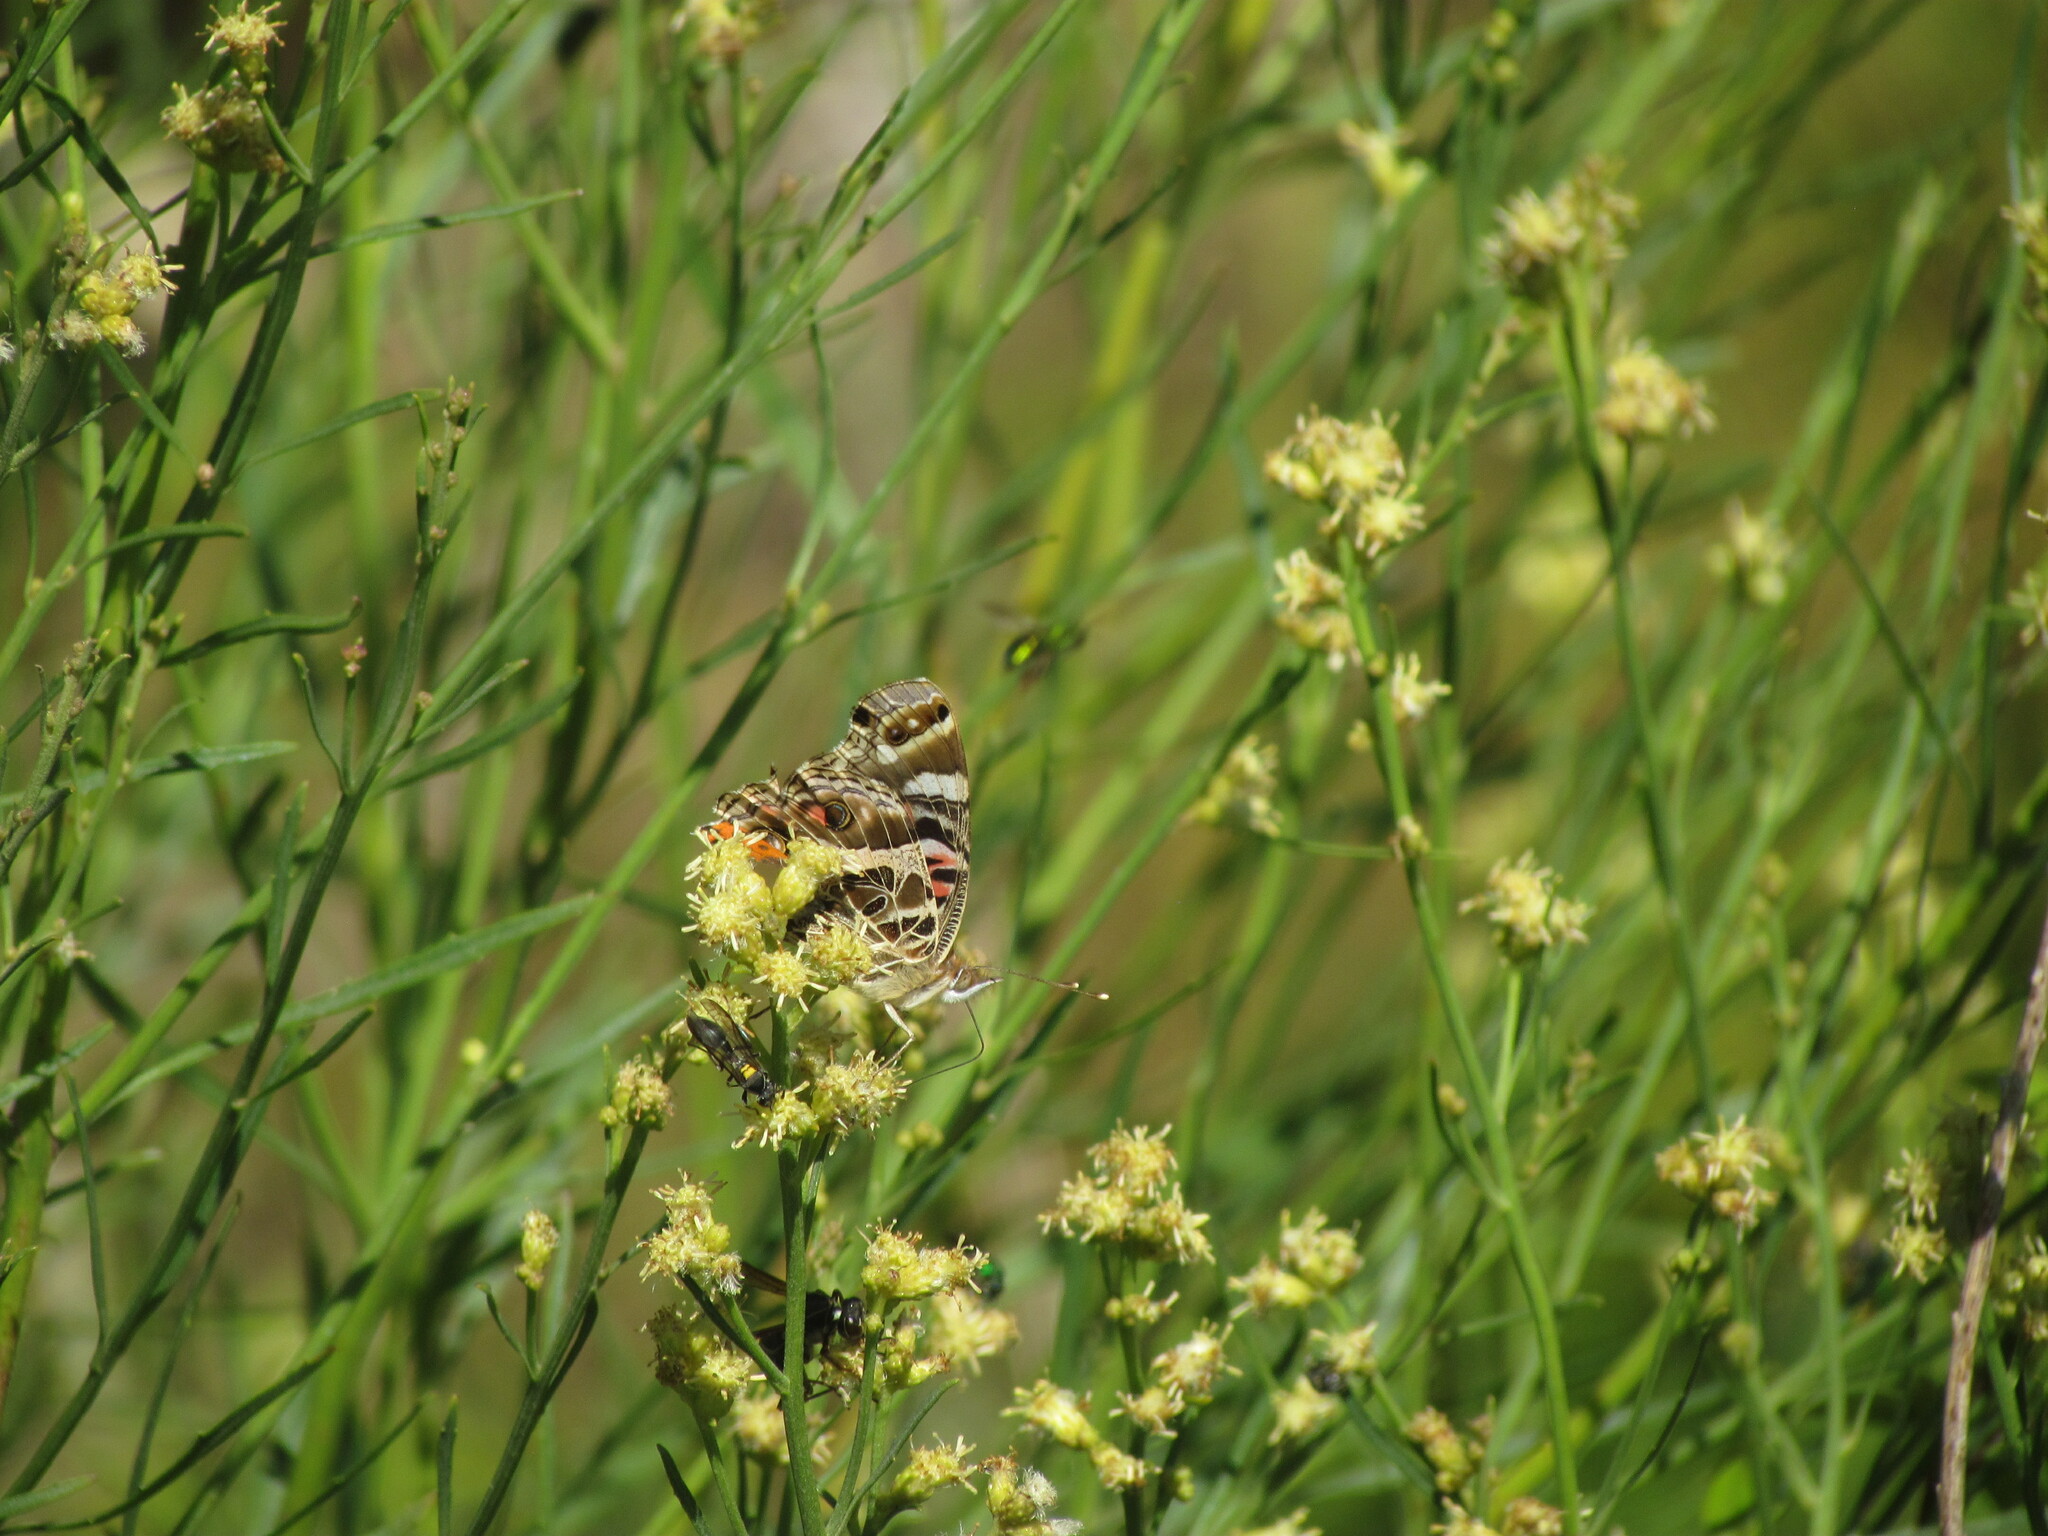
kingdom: Animalia
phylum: Arthropoda
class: Insecta
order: Lepidoptera
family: Nymphalidae
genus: Vanessa
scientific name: Vanessa braziliensis
